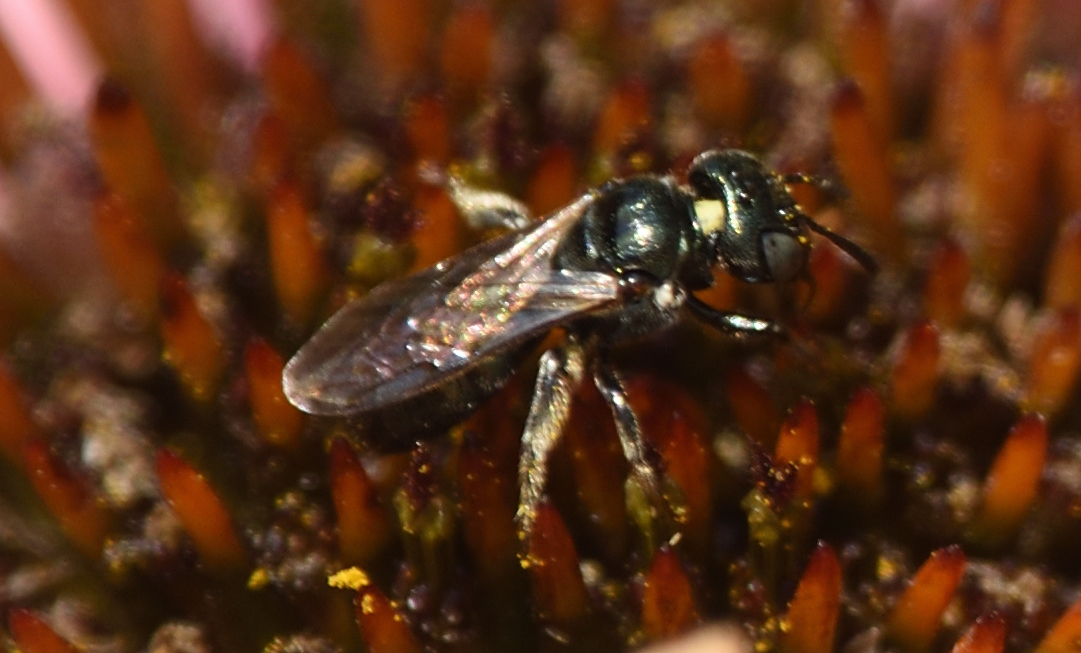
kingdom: Animalia
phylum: Arthropoda
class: Insecta
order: Hymenoptera
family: Apidae
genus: Zadontomerus
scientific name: Zadontomerus
